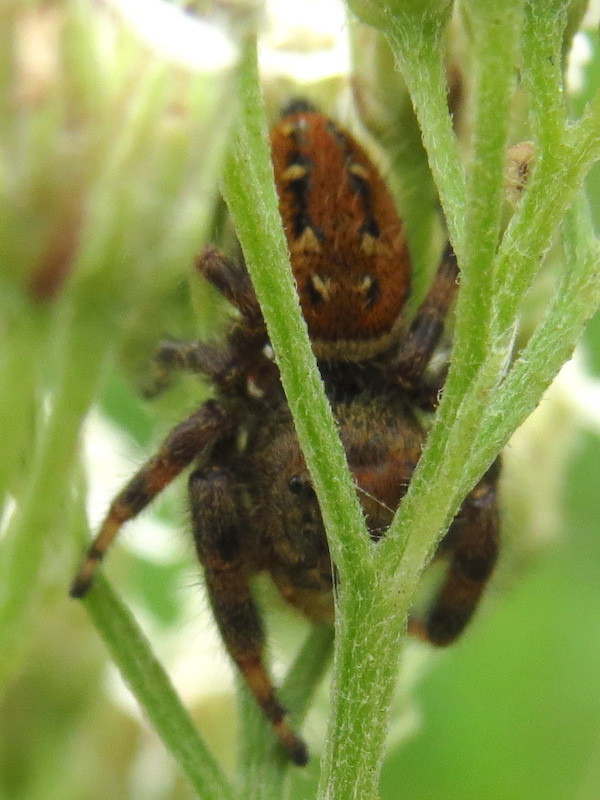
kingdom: Animalia
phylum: Arthropoda
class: Arachnida
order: Araneae
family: Salticidae
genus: Phidippus
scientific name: Phidippus clarus
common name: Brilliant jumping spider
